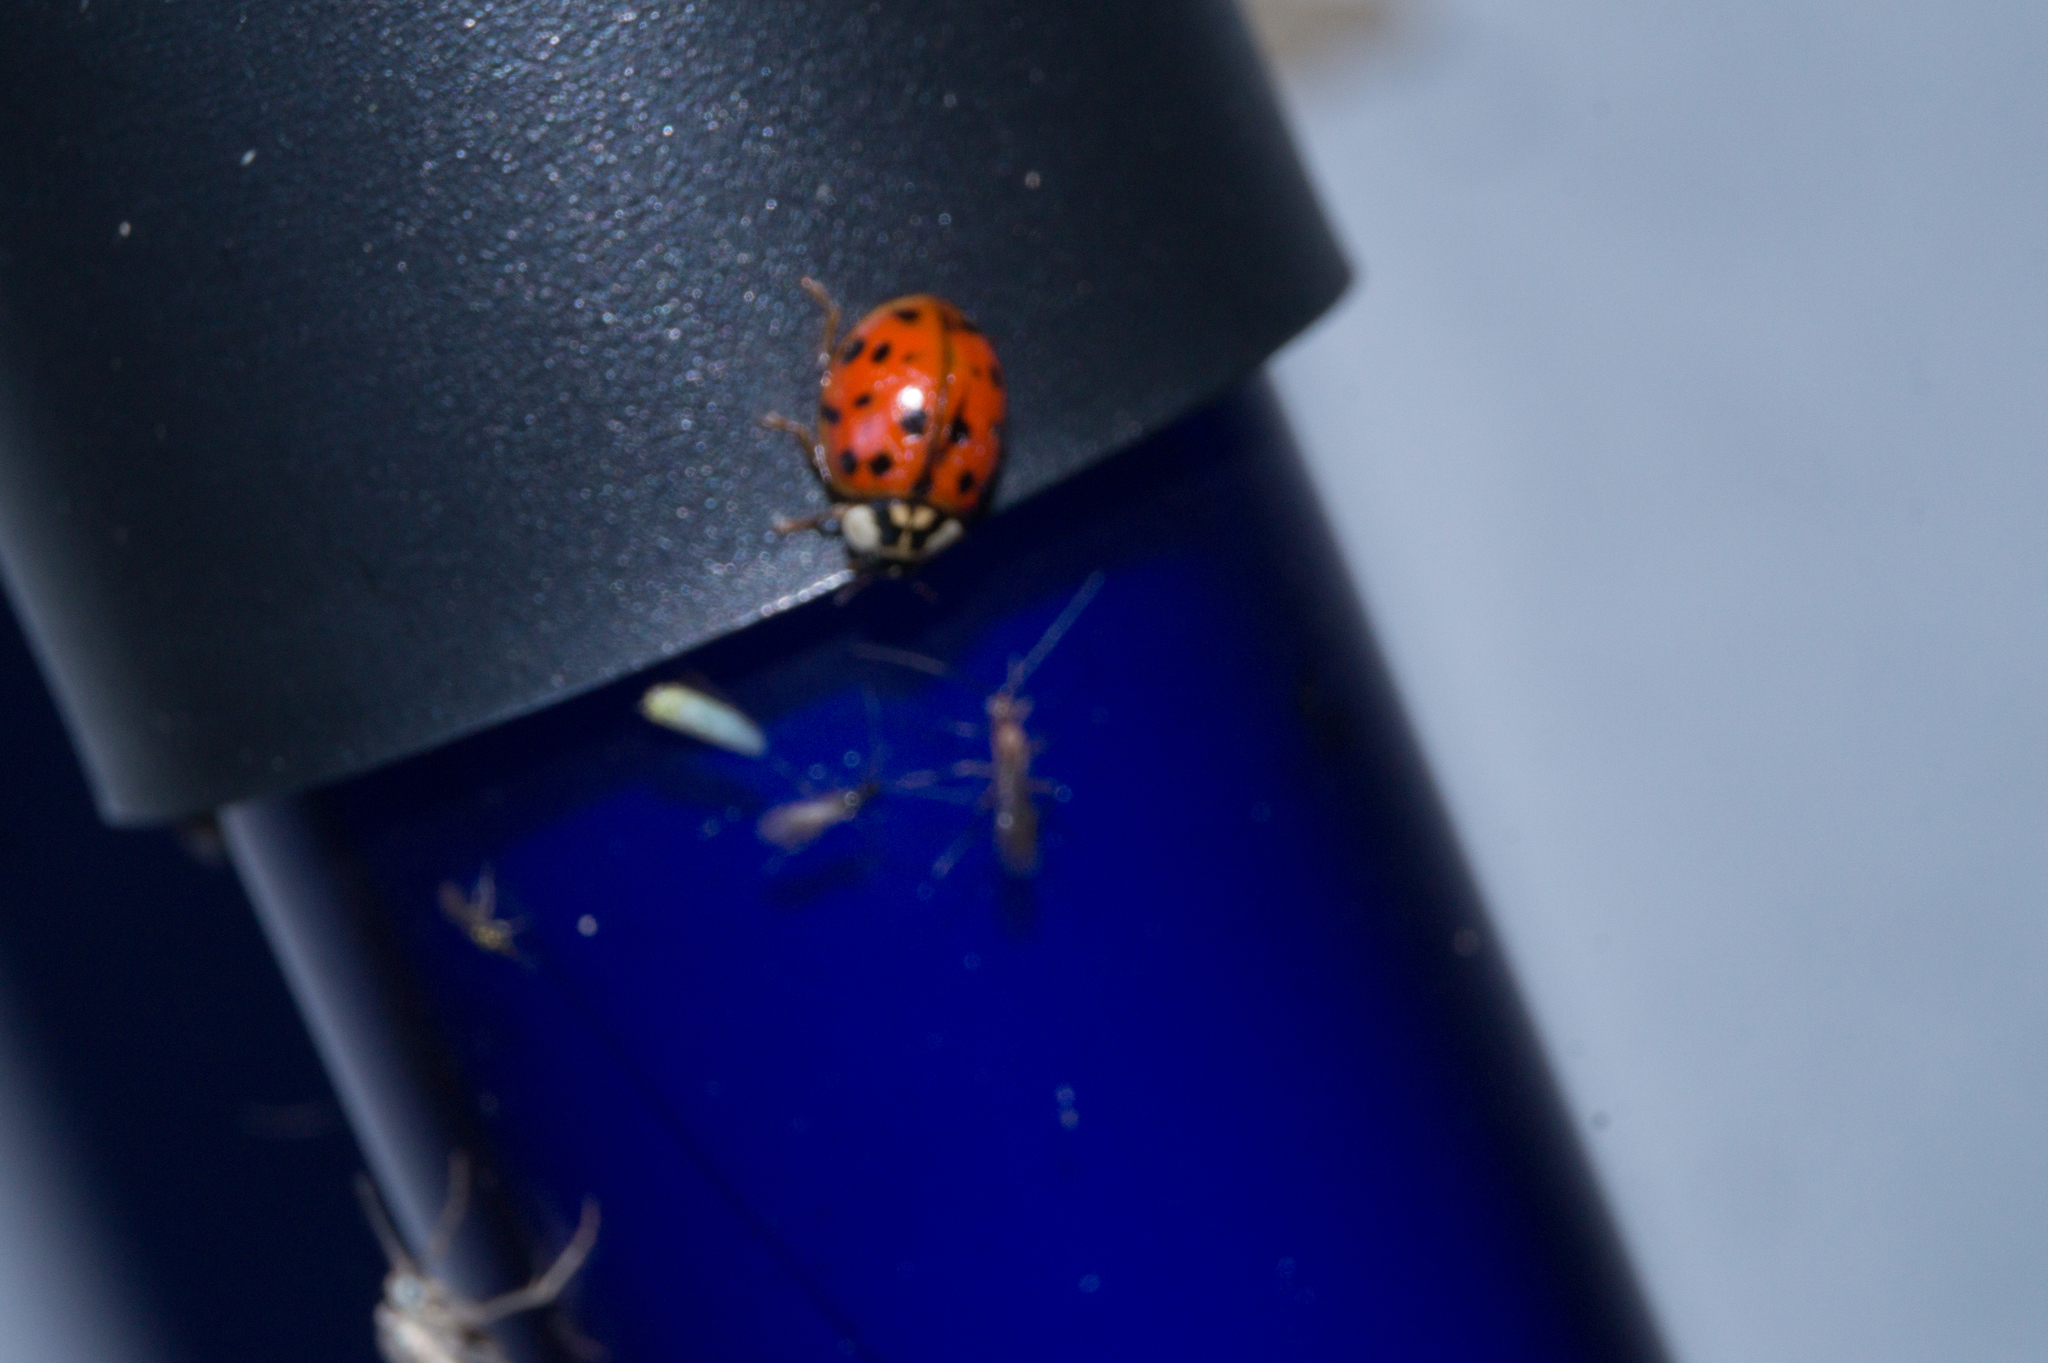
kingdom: Animalia
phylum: Arthropoda
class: Insecta
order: Coleoptera
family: Coccinellidae
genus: Harmonia
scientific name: Harmonia axyridis
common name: Harlequin ladybird
